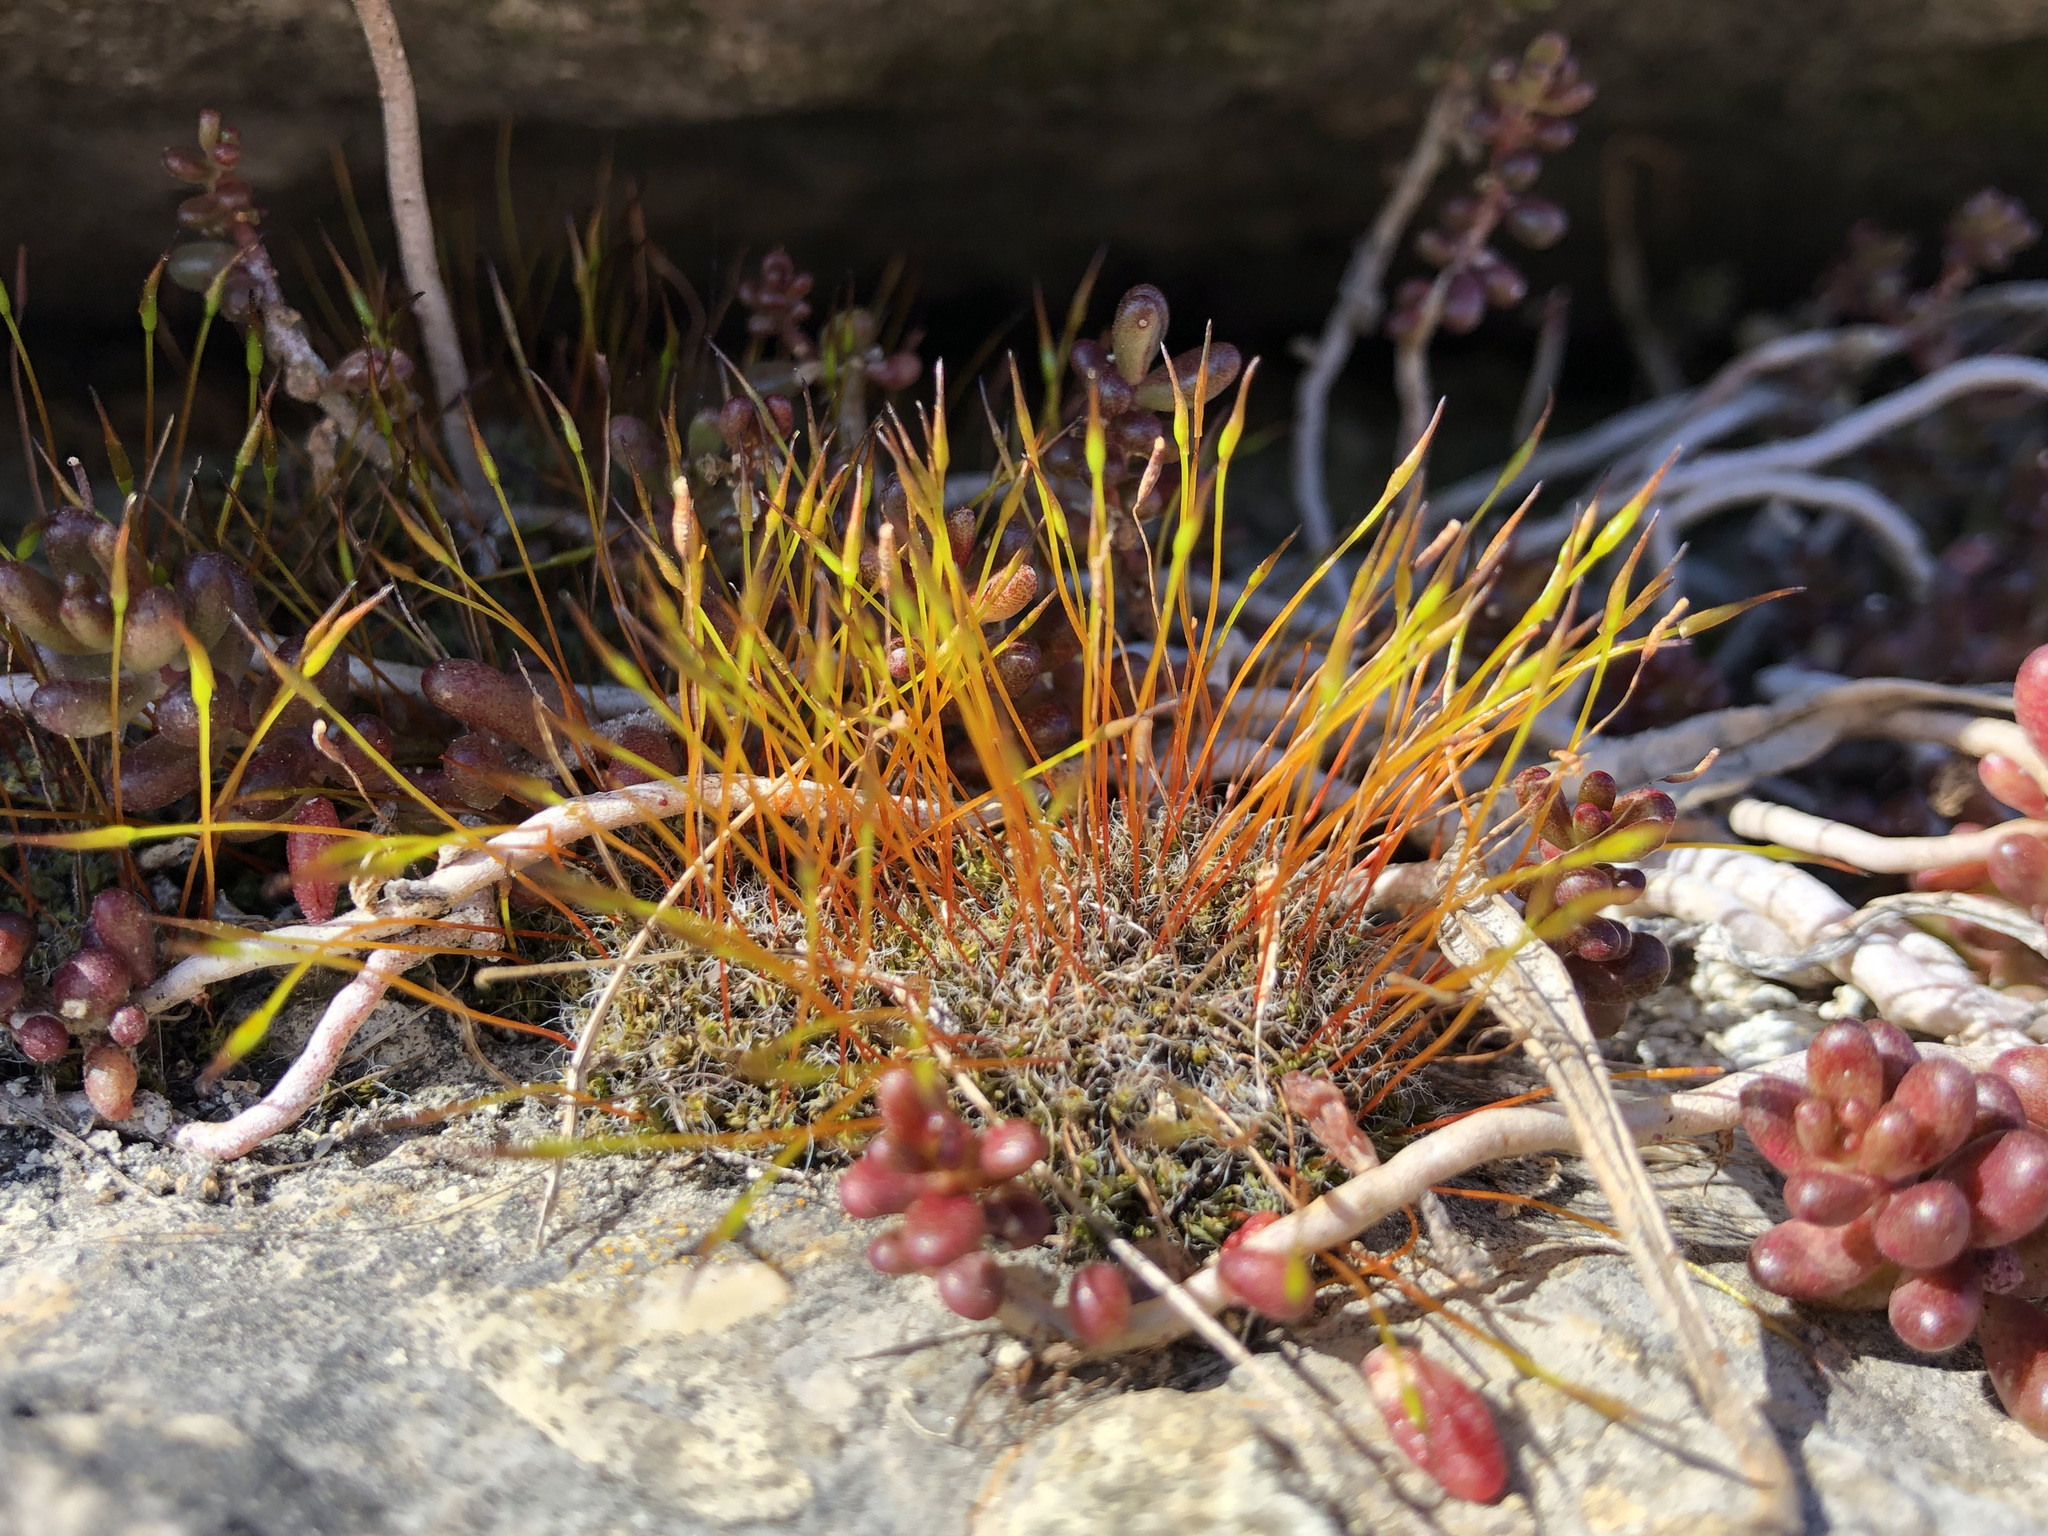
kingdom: Plantae
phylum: Bryophyta
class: Bryopsida
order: Pottiales
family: Pottiaceae
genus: Tortula
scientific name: Tortula muralis
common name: Wall screw-moss
